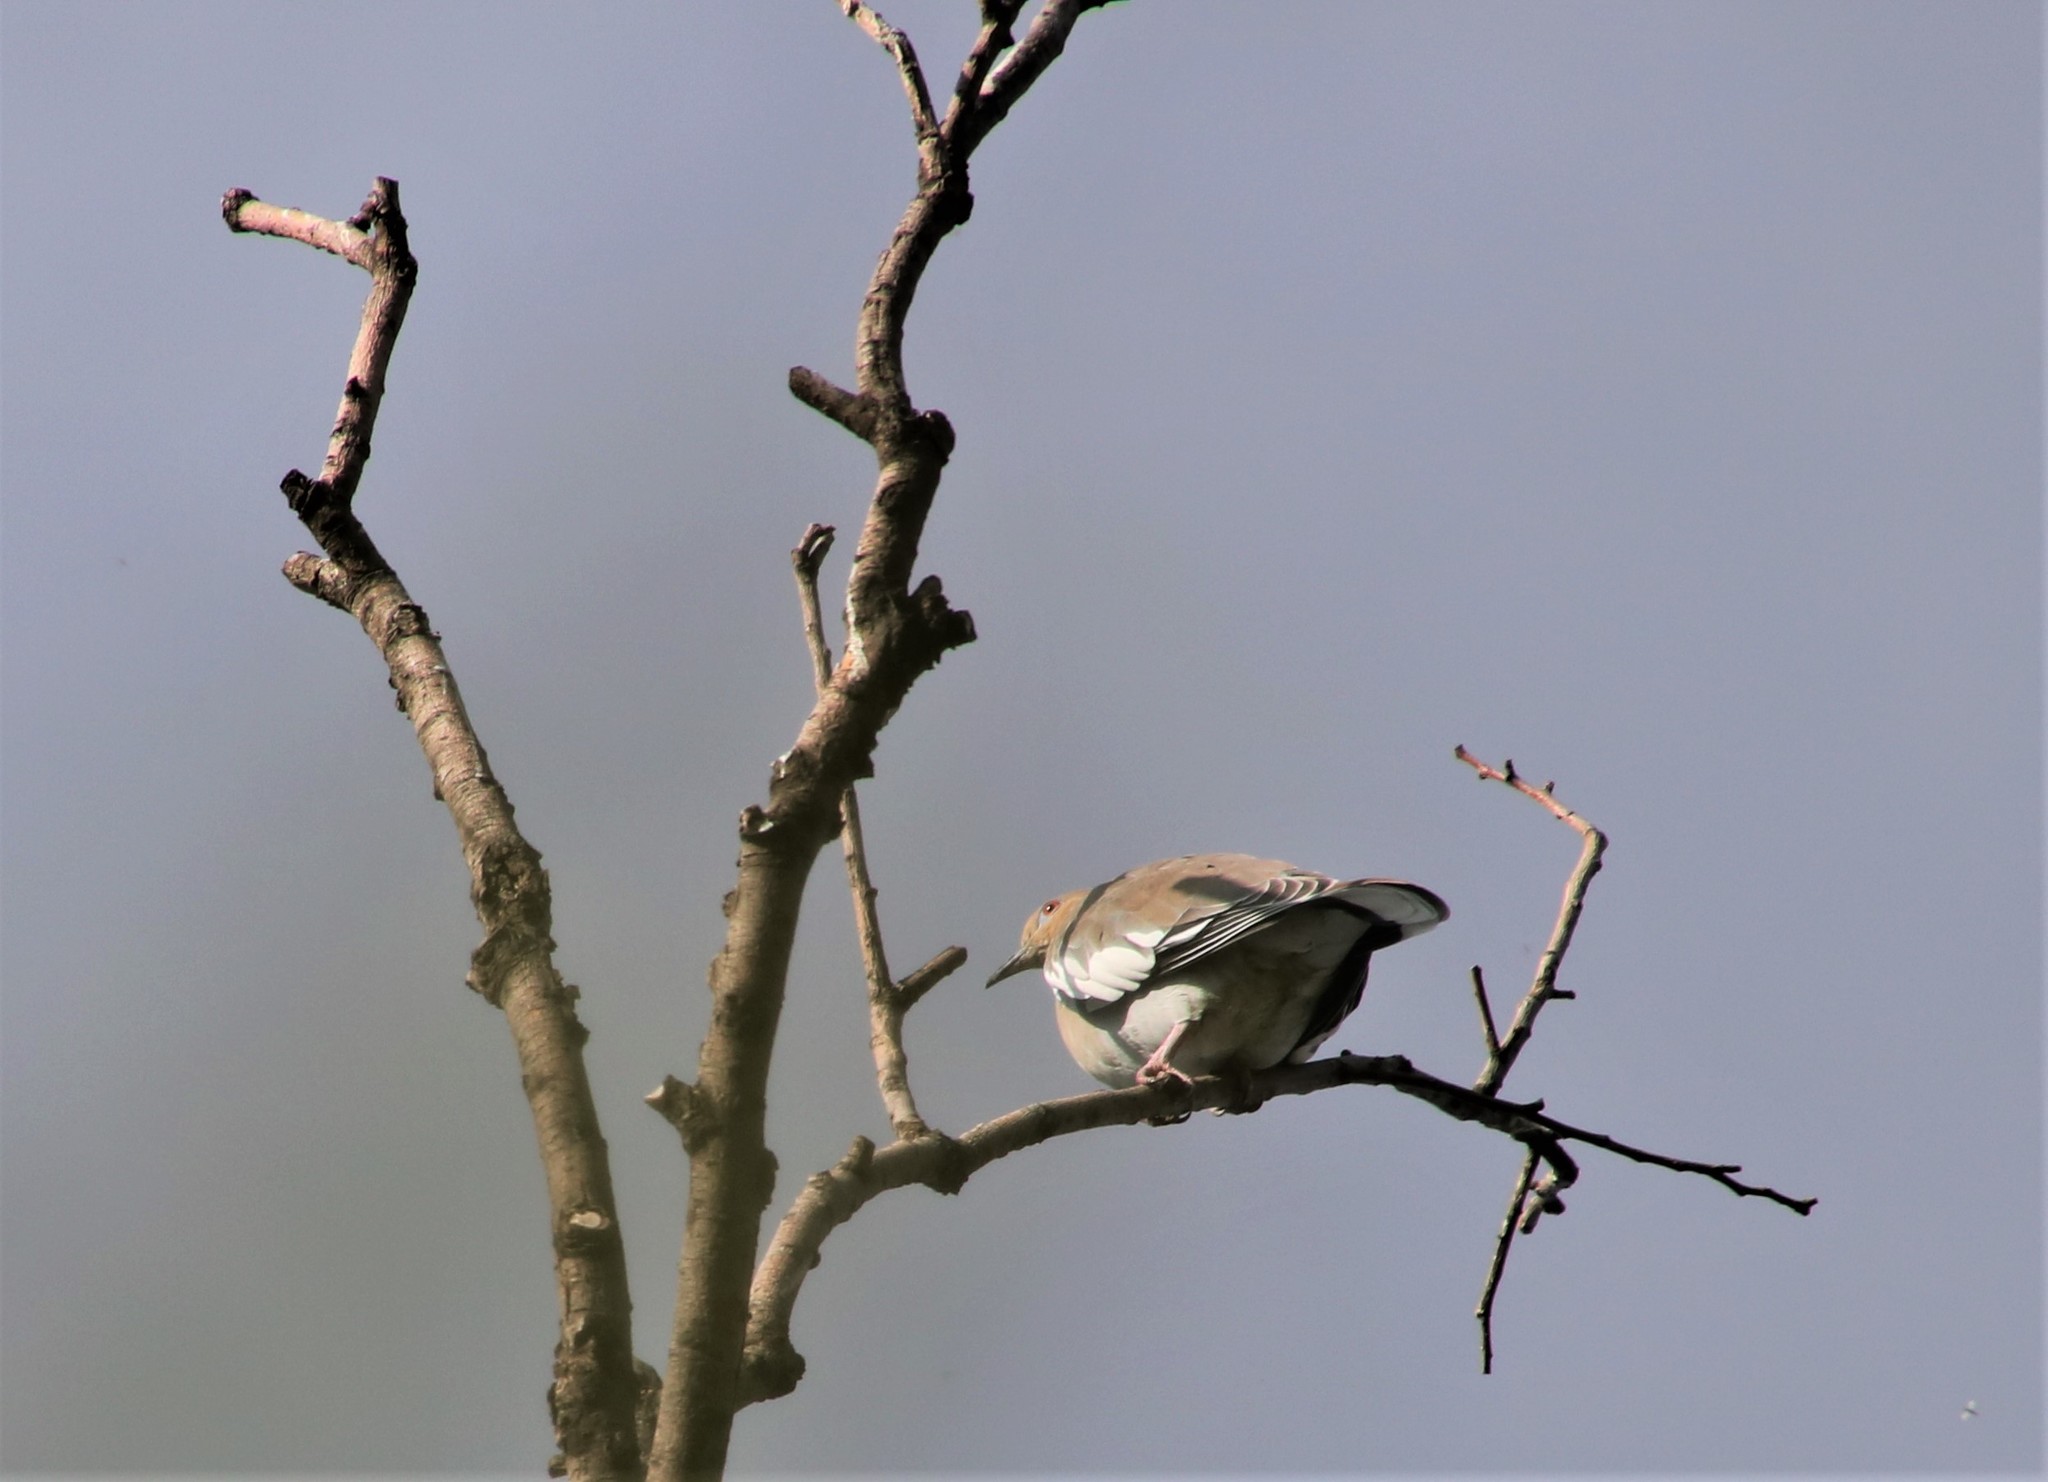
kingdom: Animalia
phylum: Chordata
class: Aves
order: Columbiformes
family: Columbidae
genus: Zenaida
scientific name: Zenaida asiatica
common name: White-winged dove
